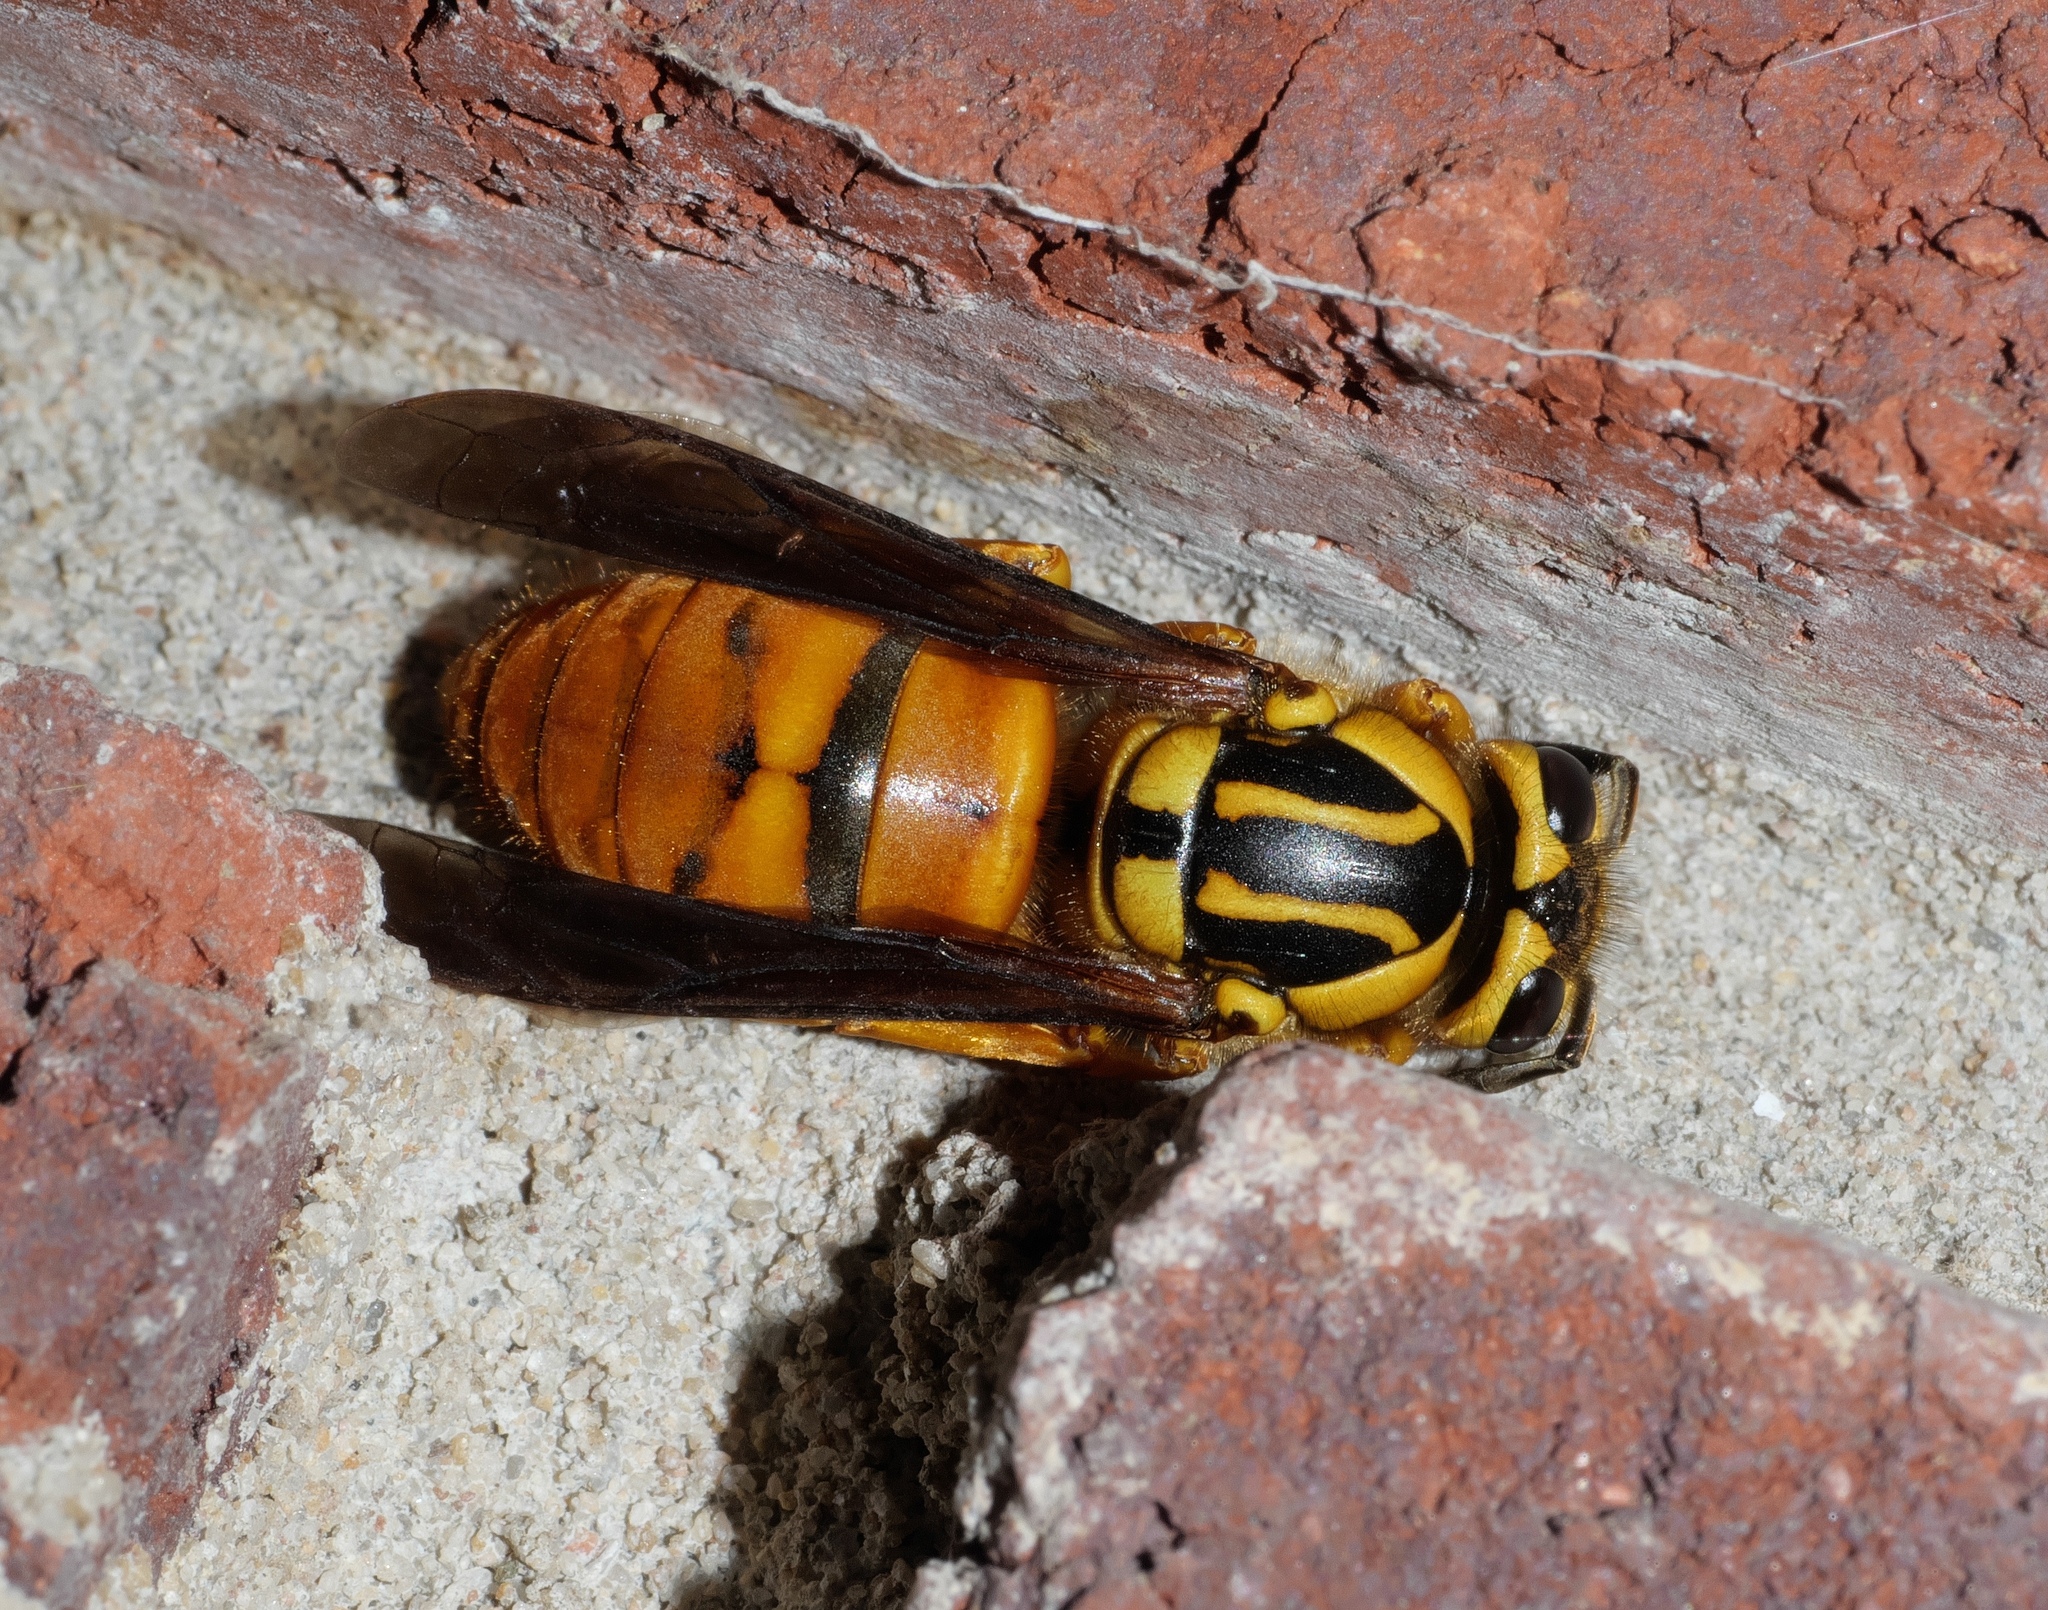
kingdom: Animalia
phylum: Arthropoda
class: Insecta
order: Hymenoptera
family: Vespidae
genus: Vespula
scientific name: Vespula squamosa
